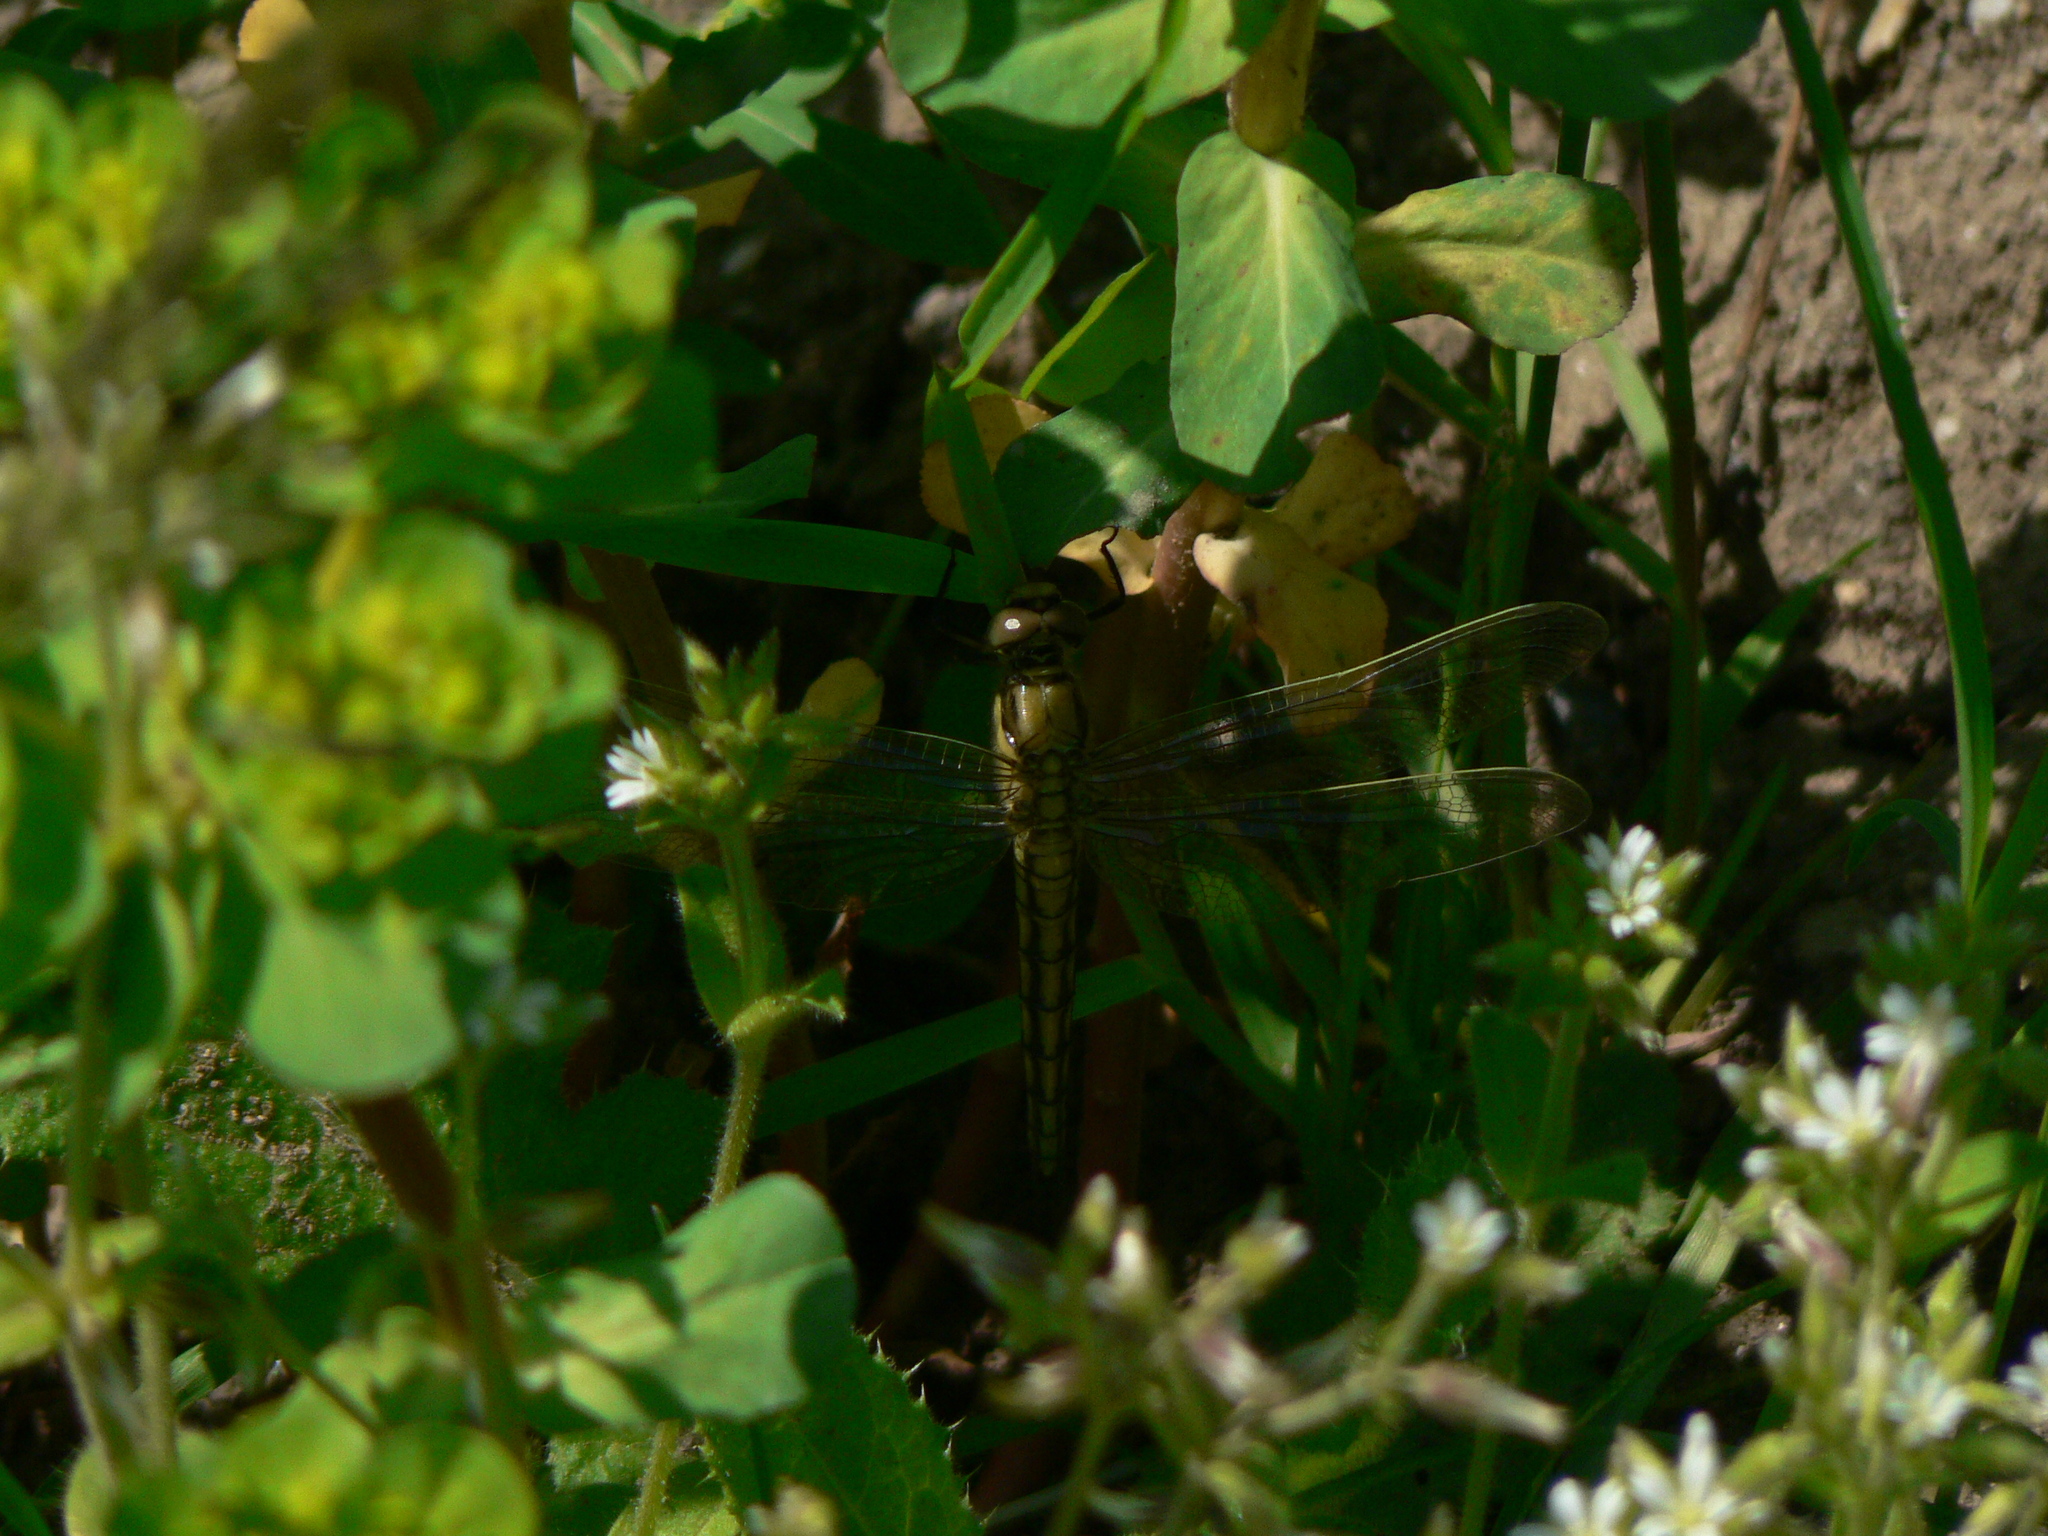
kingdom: Animalia
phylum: Arthropoda
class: Insecta
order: Odonata
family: Libellulidae
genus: Orthetrum
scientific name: Orthetrum cancellatum
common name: Black-tailed skimmer
